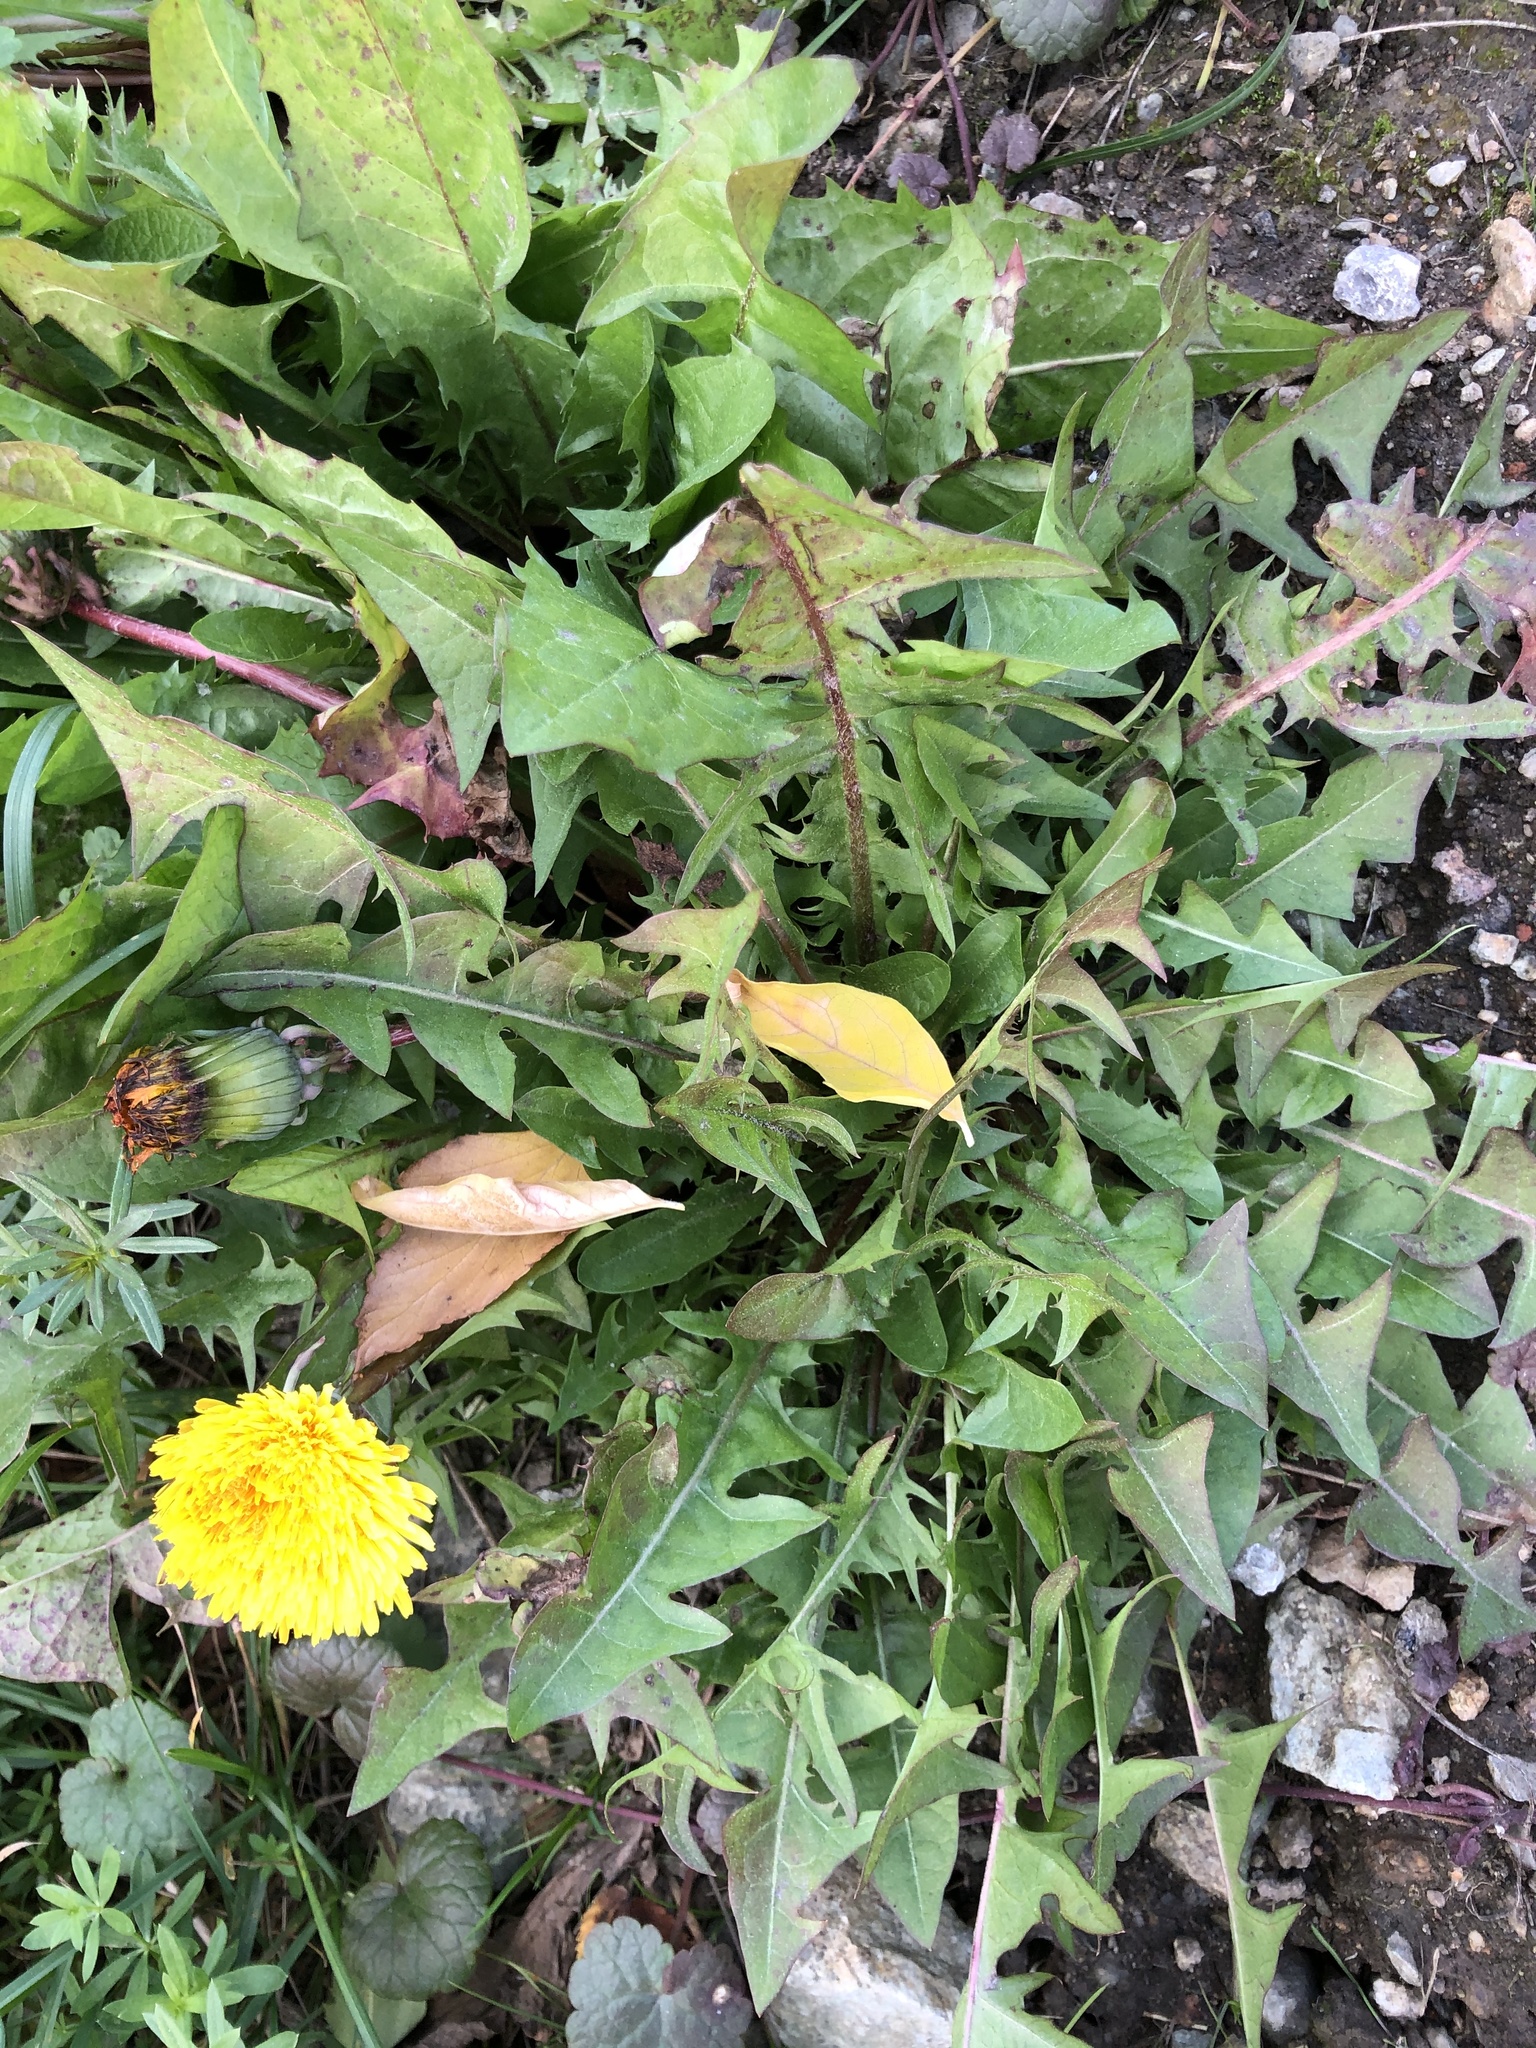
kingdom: Plantae
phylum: Tracheophyta
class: Magnoliopsida
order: Asterales
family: Asteraceae
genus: Taraxacum
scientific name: Taraxacum officinale
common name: Common dandelion
